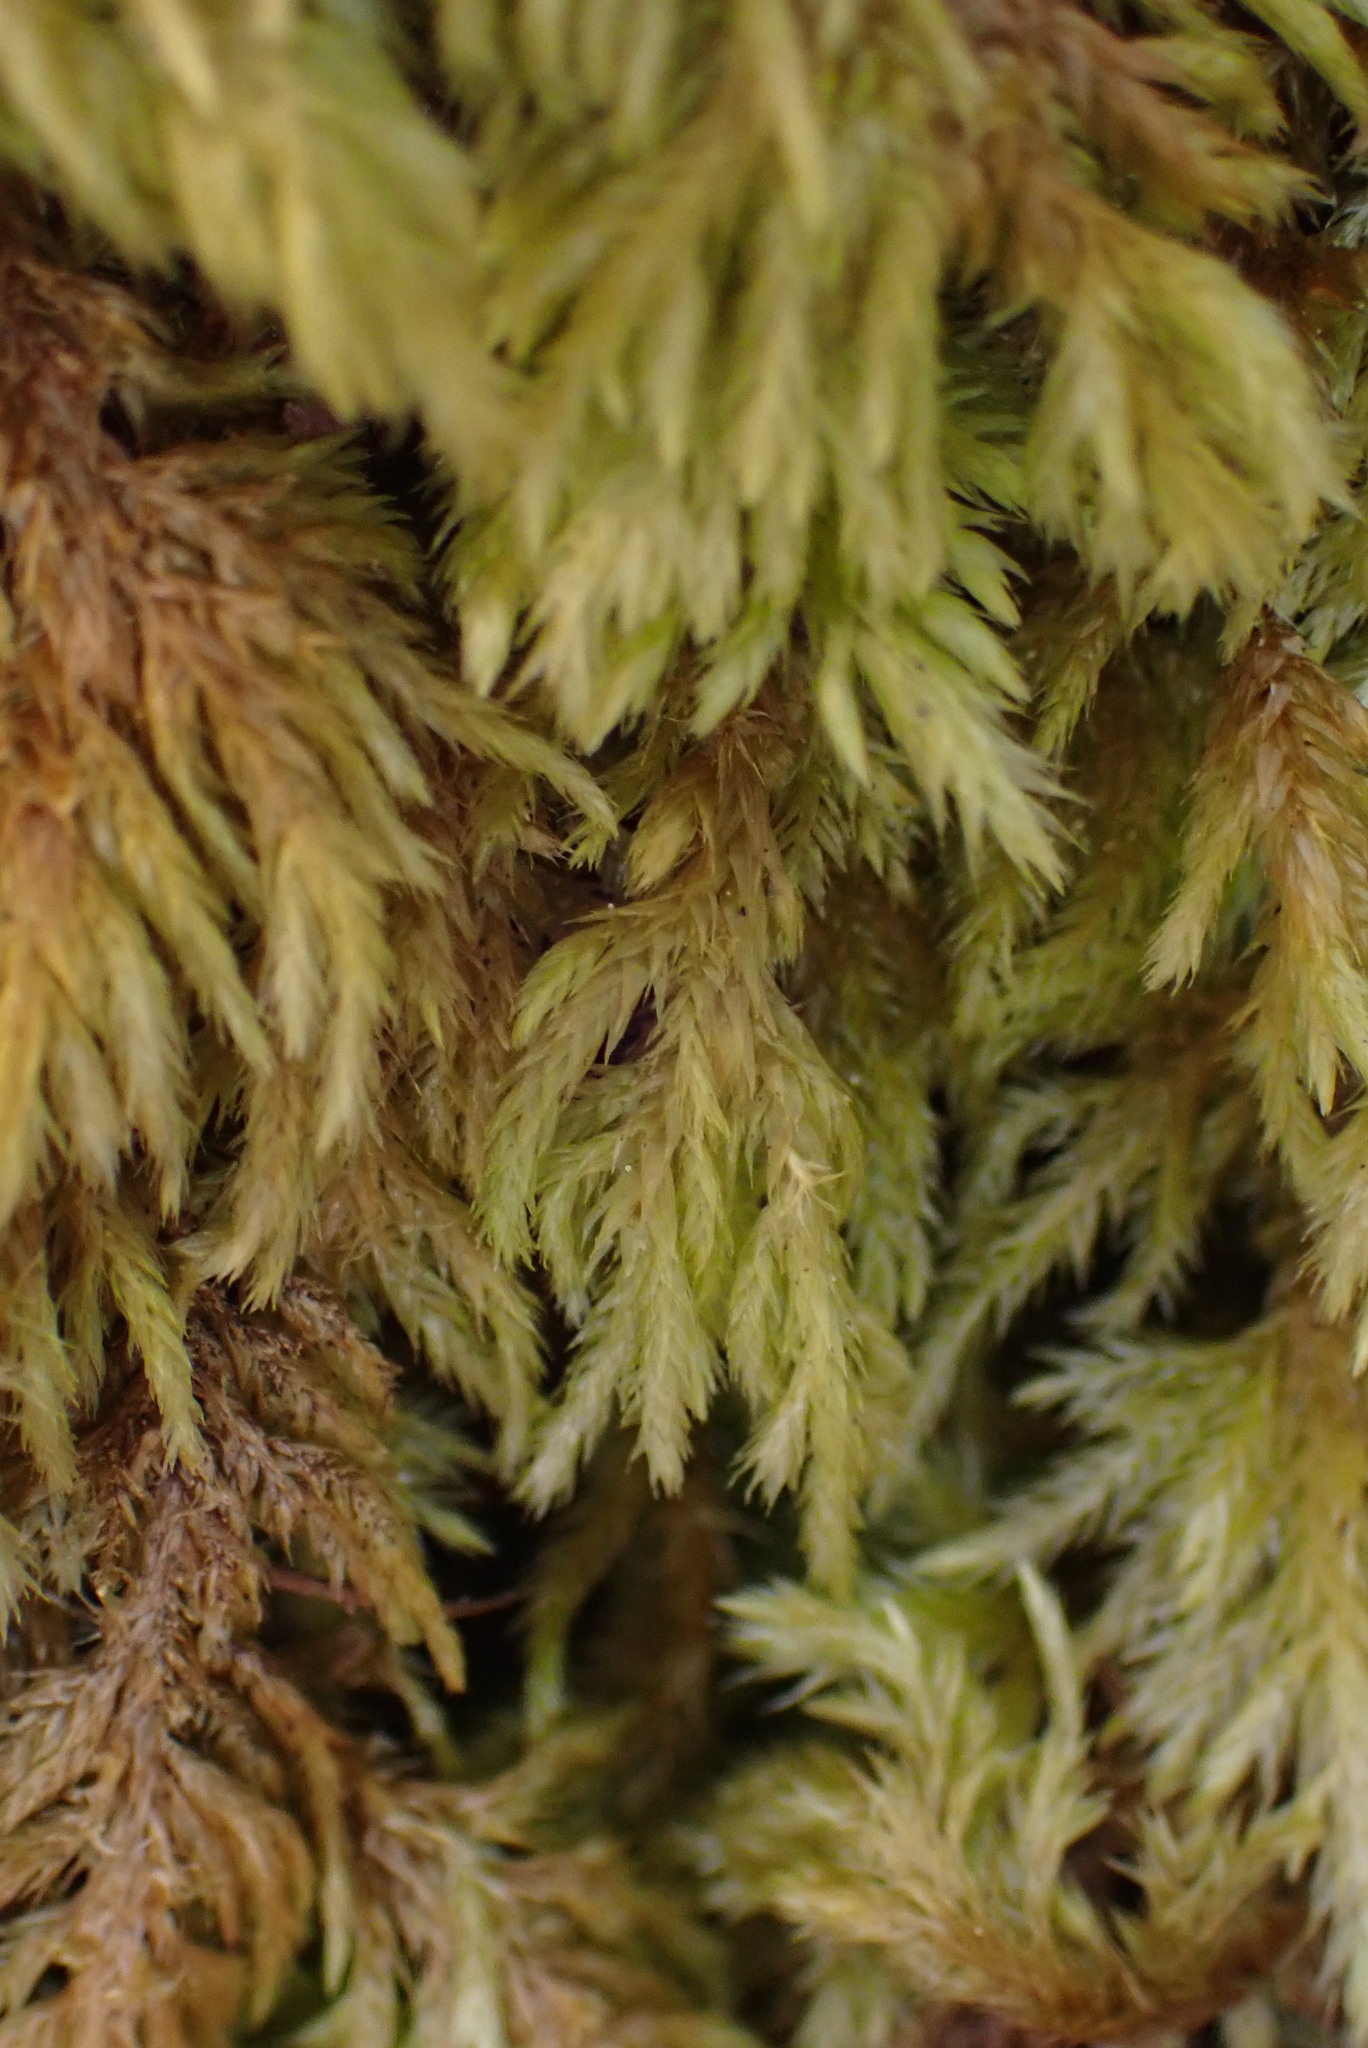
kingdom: Plantae
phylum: Bryophyta
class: Bryopsida
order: Hypnales
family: Cryphaeaceae
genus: Dendroalsia
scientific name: Dendroalsia abietina
